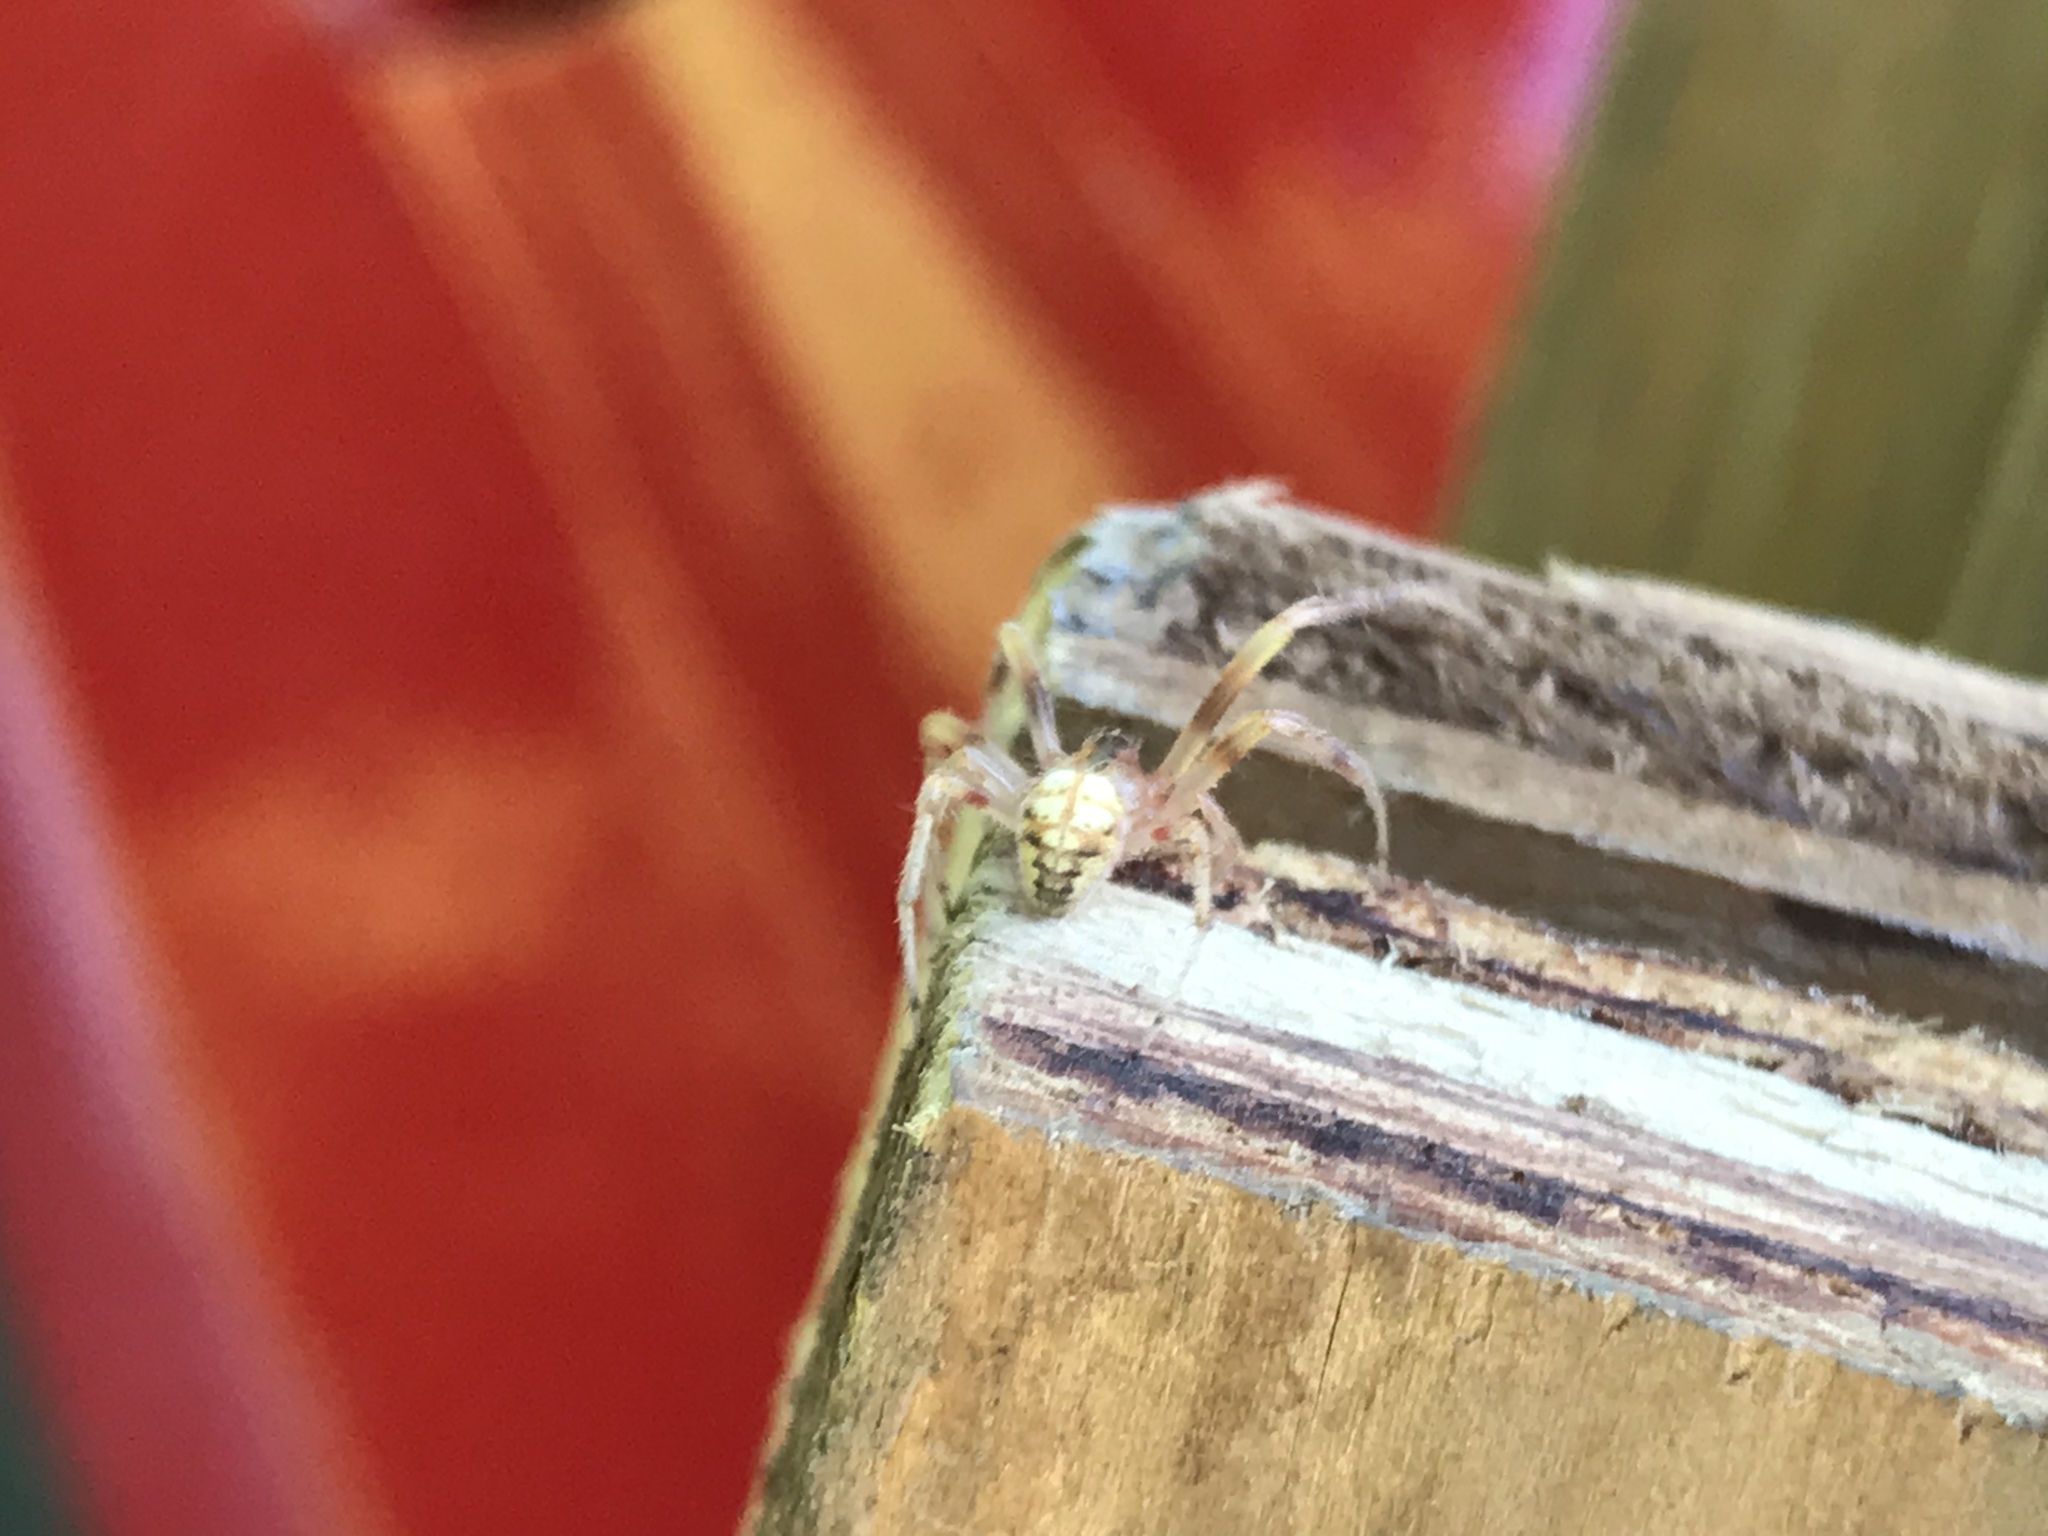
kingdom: Animalia
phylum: Arthropoda
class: Arachnida
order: Araneae
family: Araneidae
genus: Araneus
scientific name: Araneus thaddeus
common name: Lattice orbweaver
